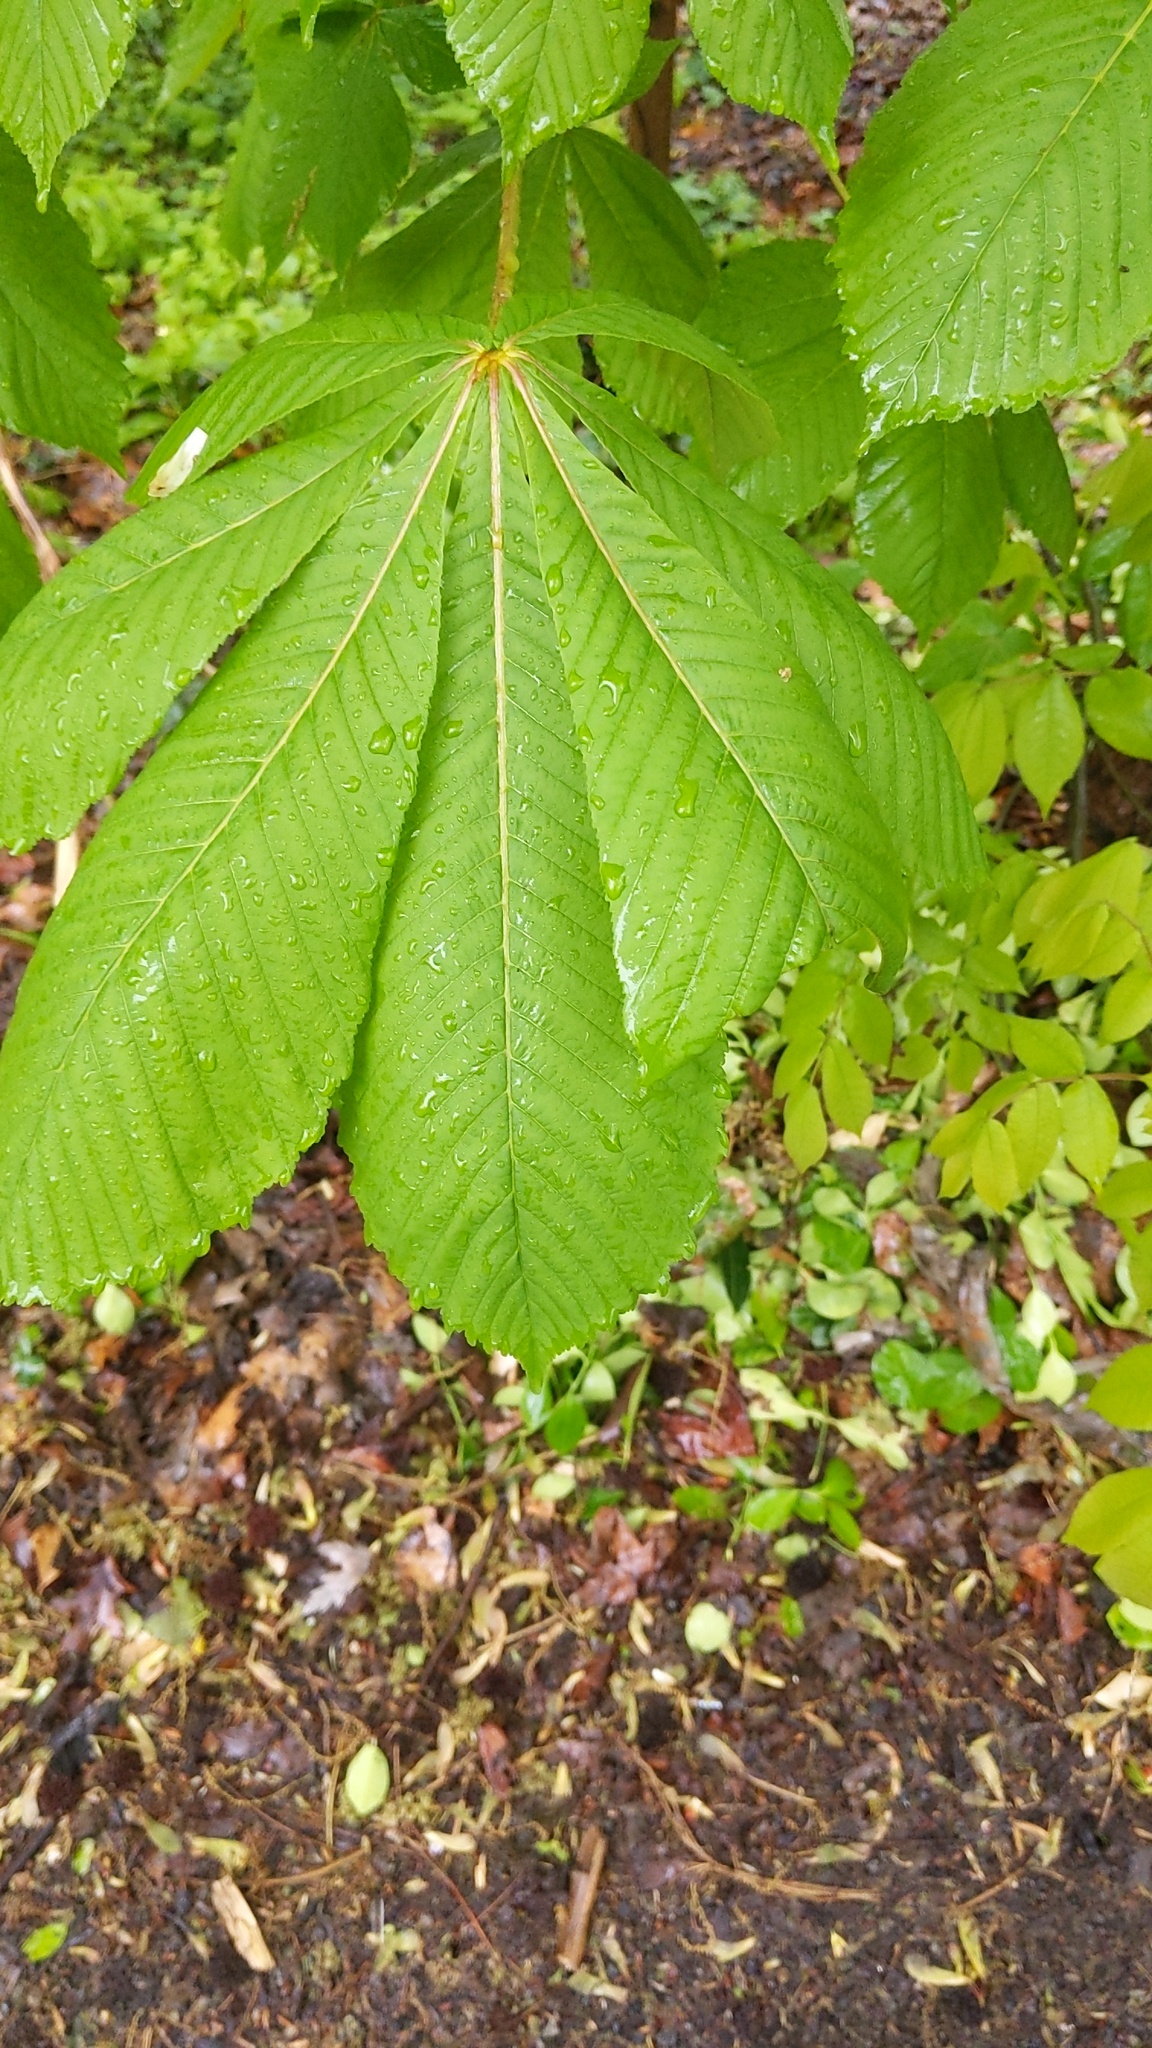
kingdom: Plantae
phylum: Tracheophyta
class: Magnoliopsida
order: Sapindales
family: Sapindaceae
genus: Aesculus
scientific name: Aesculus hippocastanum
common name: Horse-chestnut
